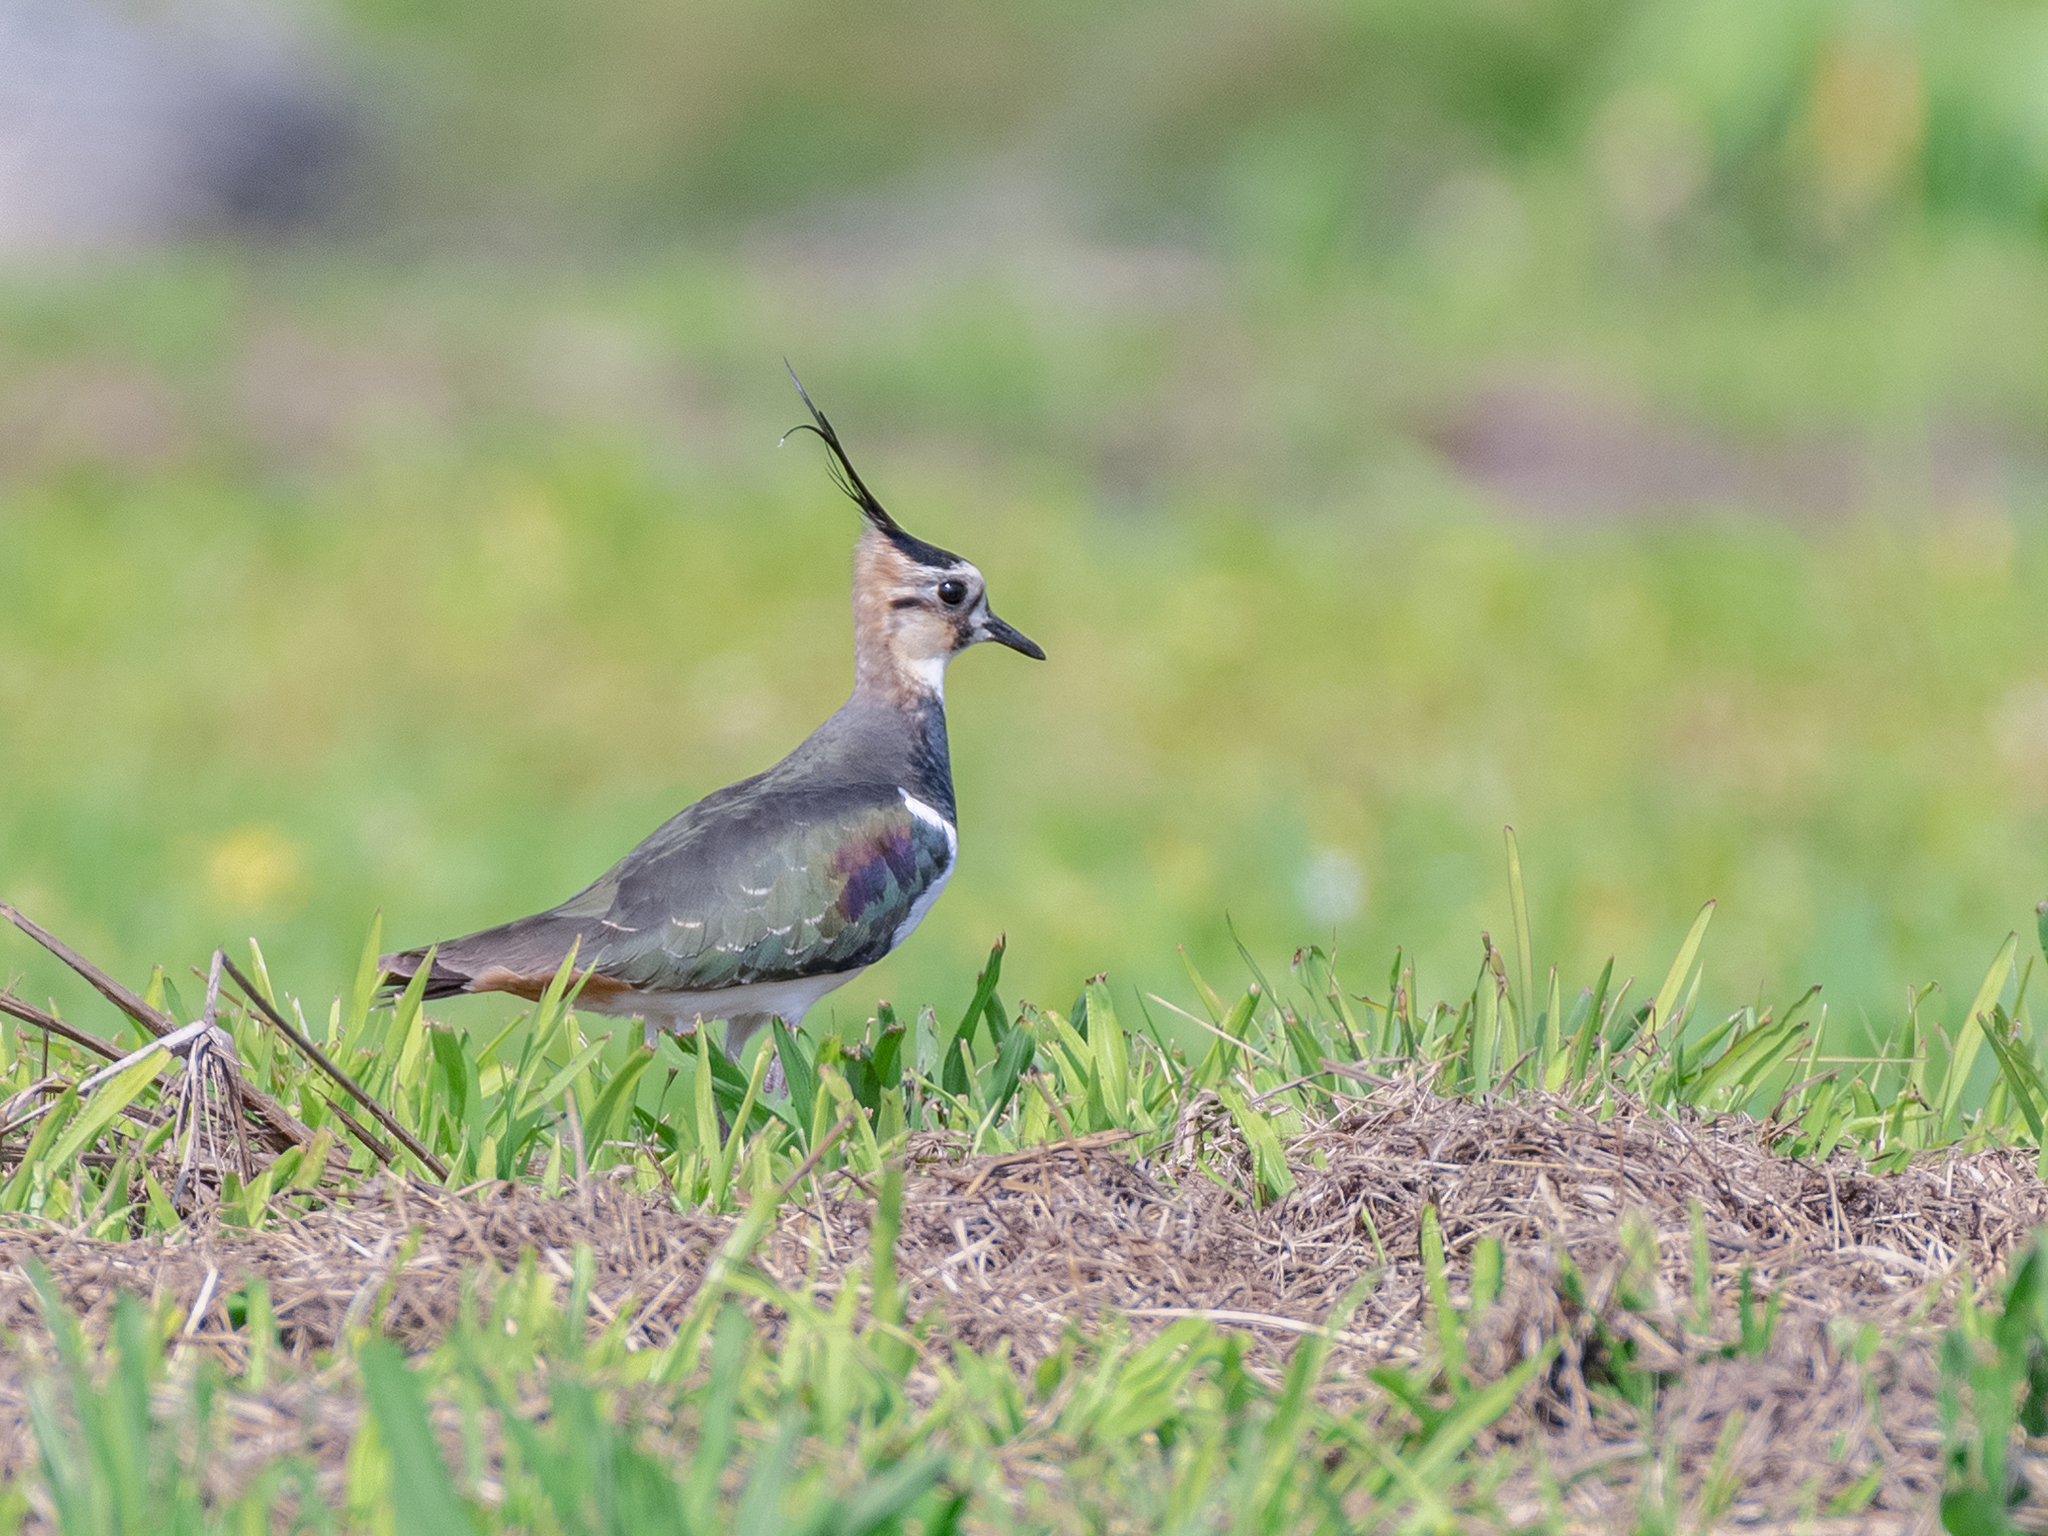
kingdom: Animalia
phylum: Chordata
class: Aves
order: Charadriiformes
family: Charadriidae
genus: Vanellus
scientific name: Vanellus vanellus
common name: Northern lapwing
